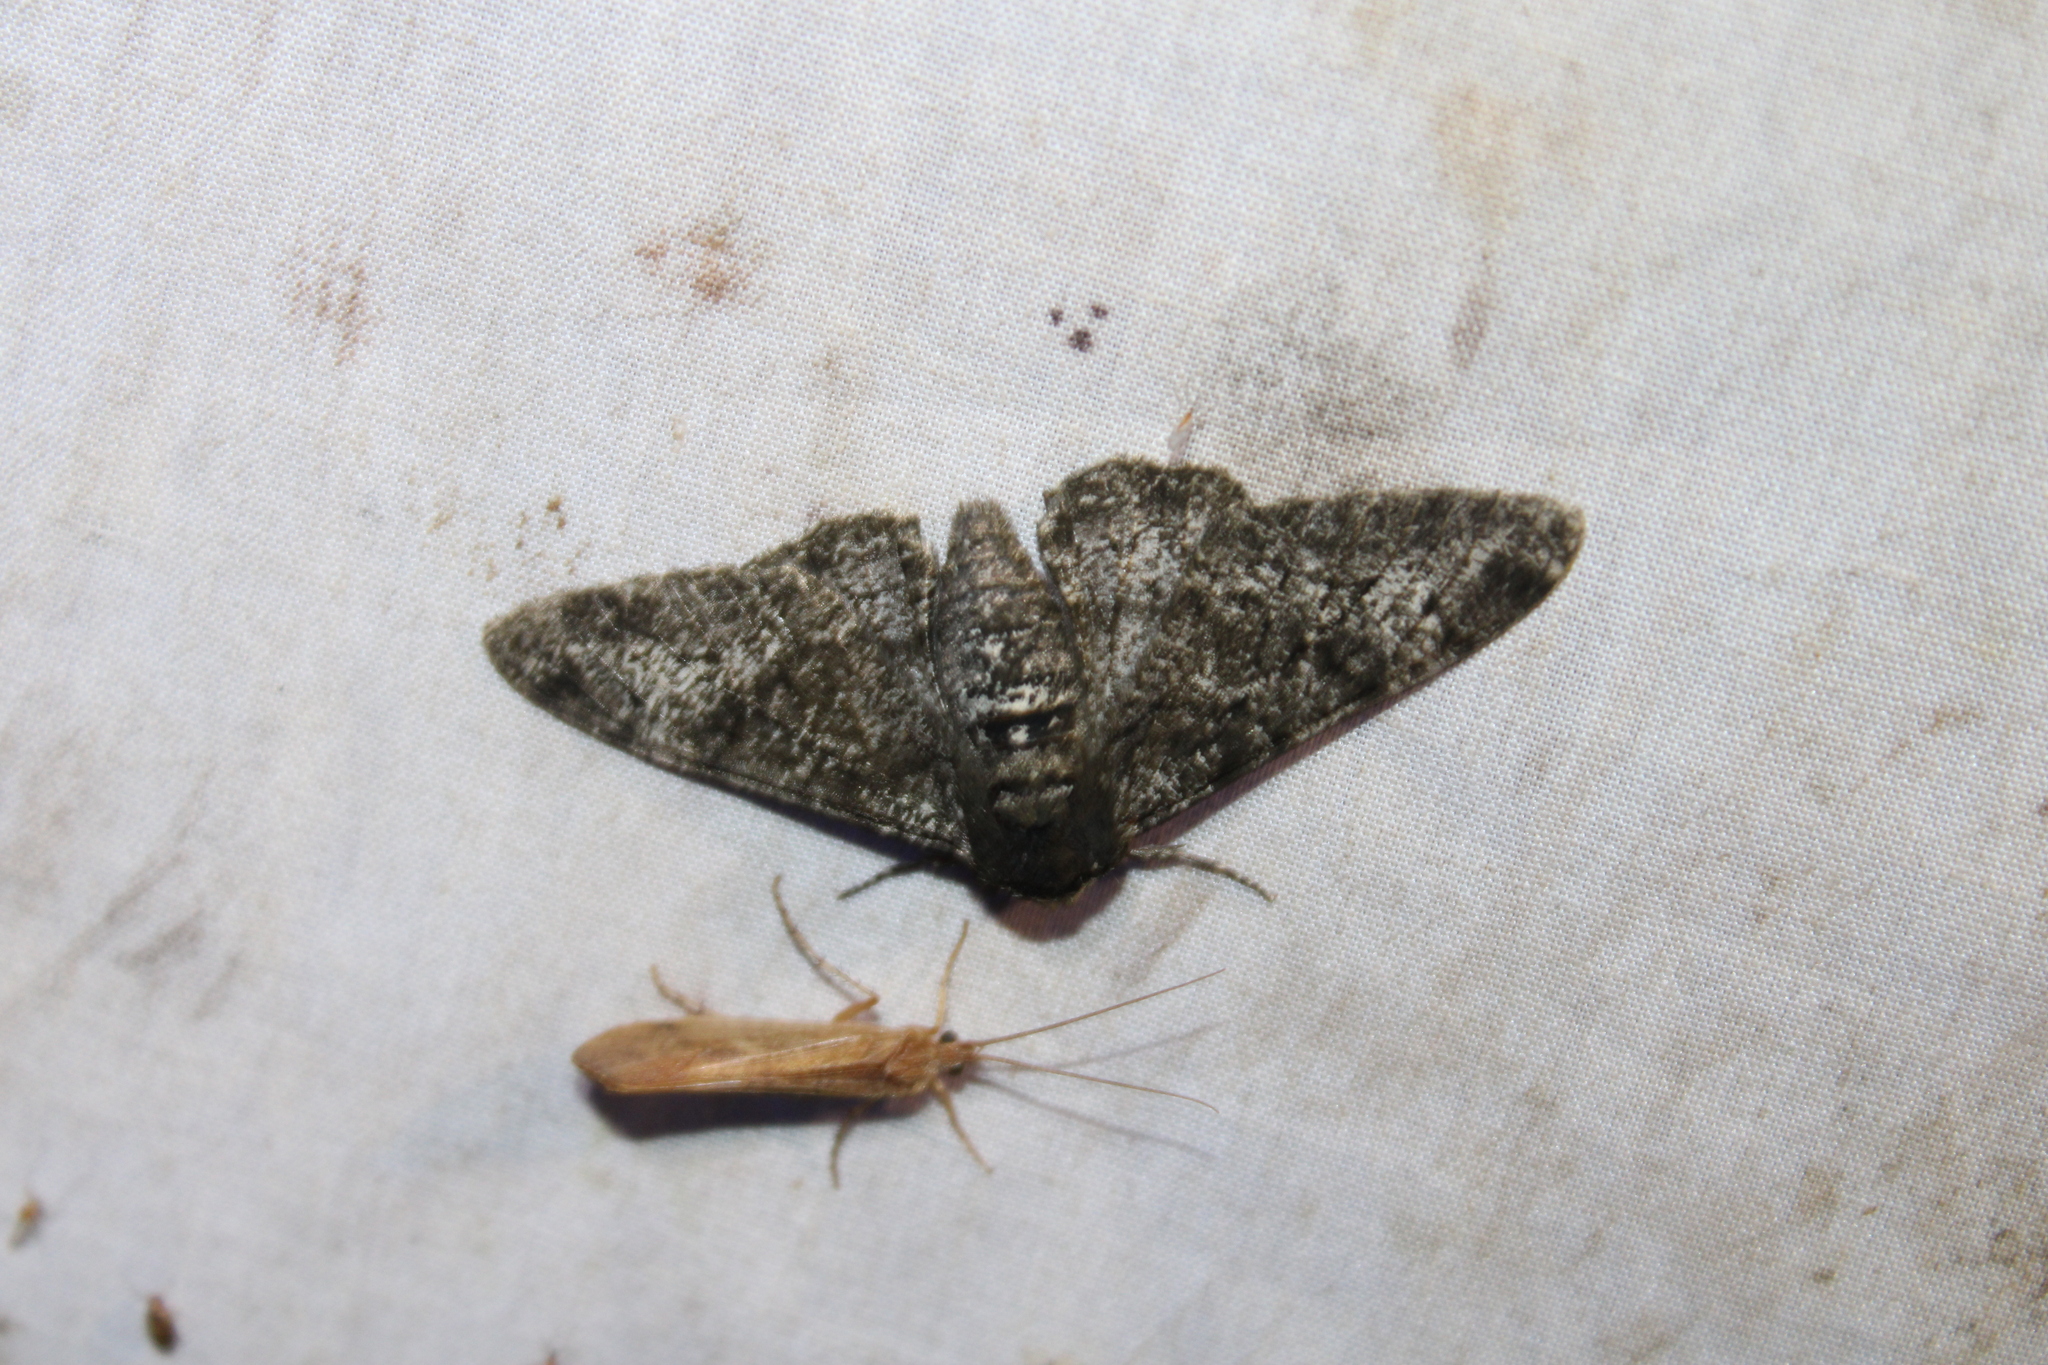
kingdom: Animalia
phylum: Arthropoda
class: Insecta
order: Lepidoptera
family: Geometridae
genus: Biston
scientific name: Biston betularia
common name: Peppered moth
